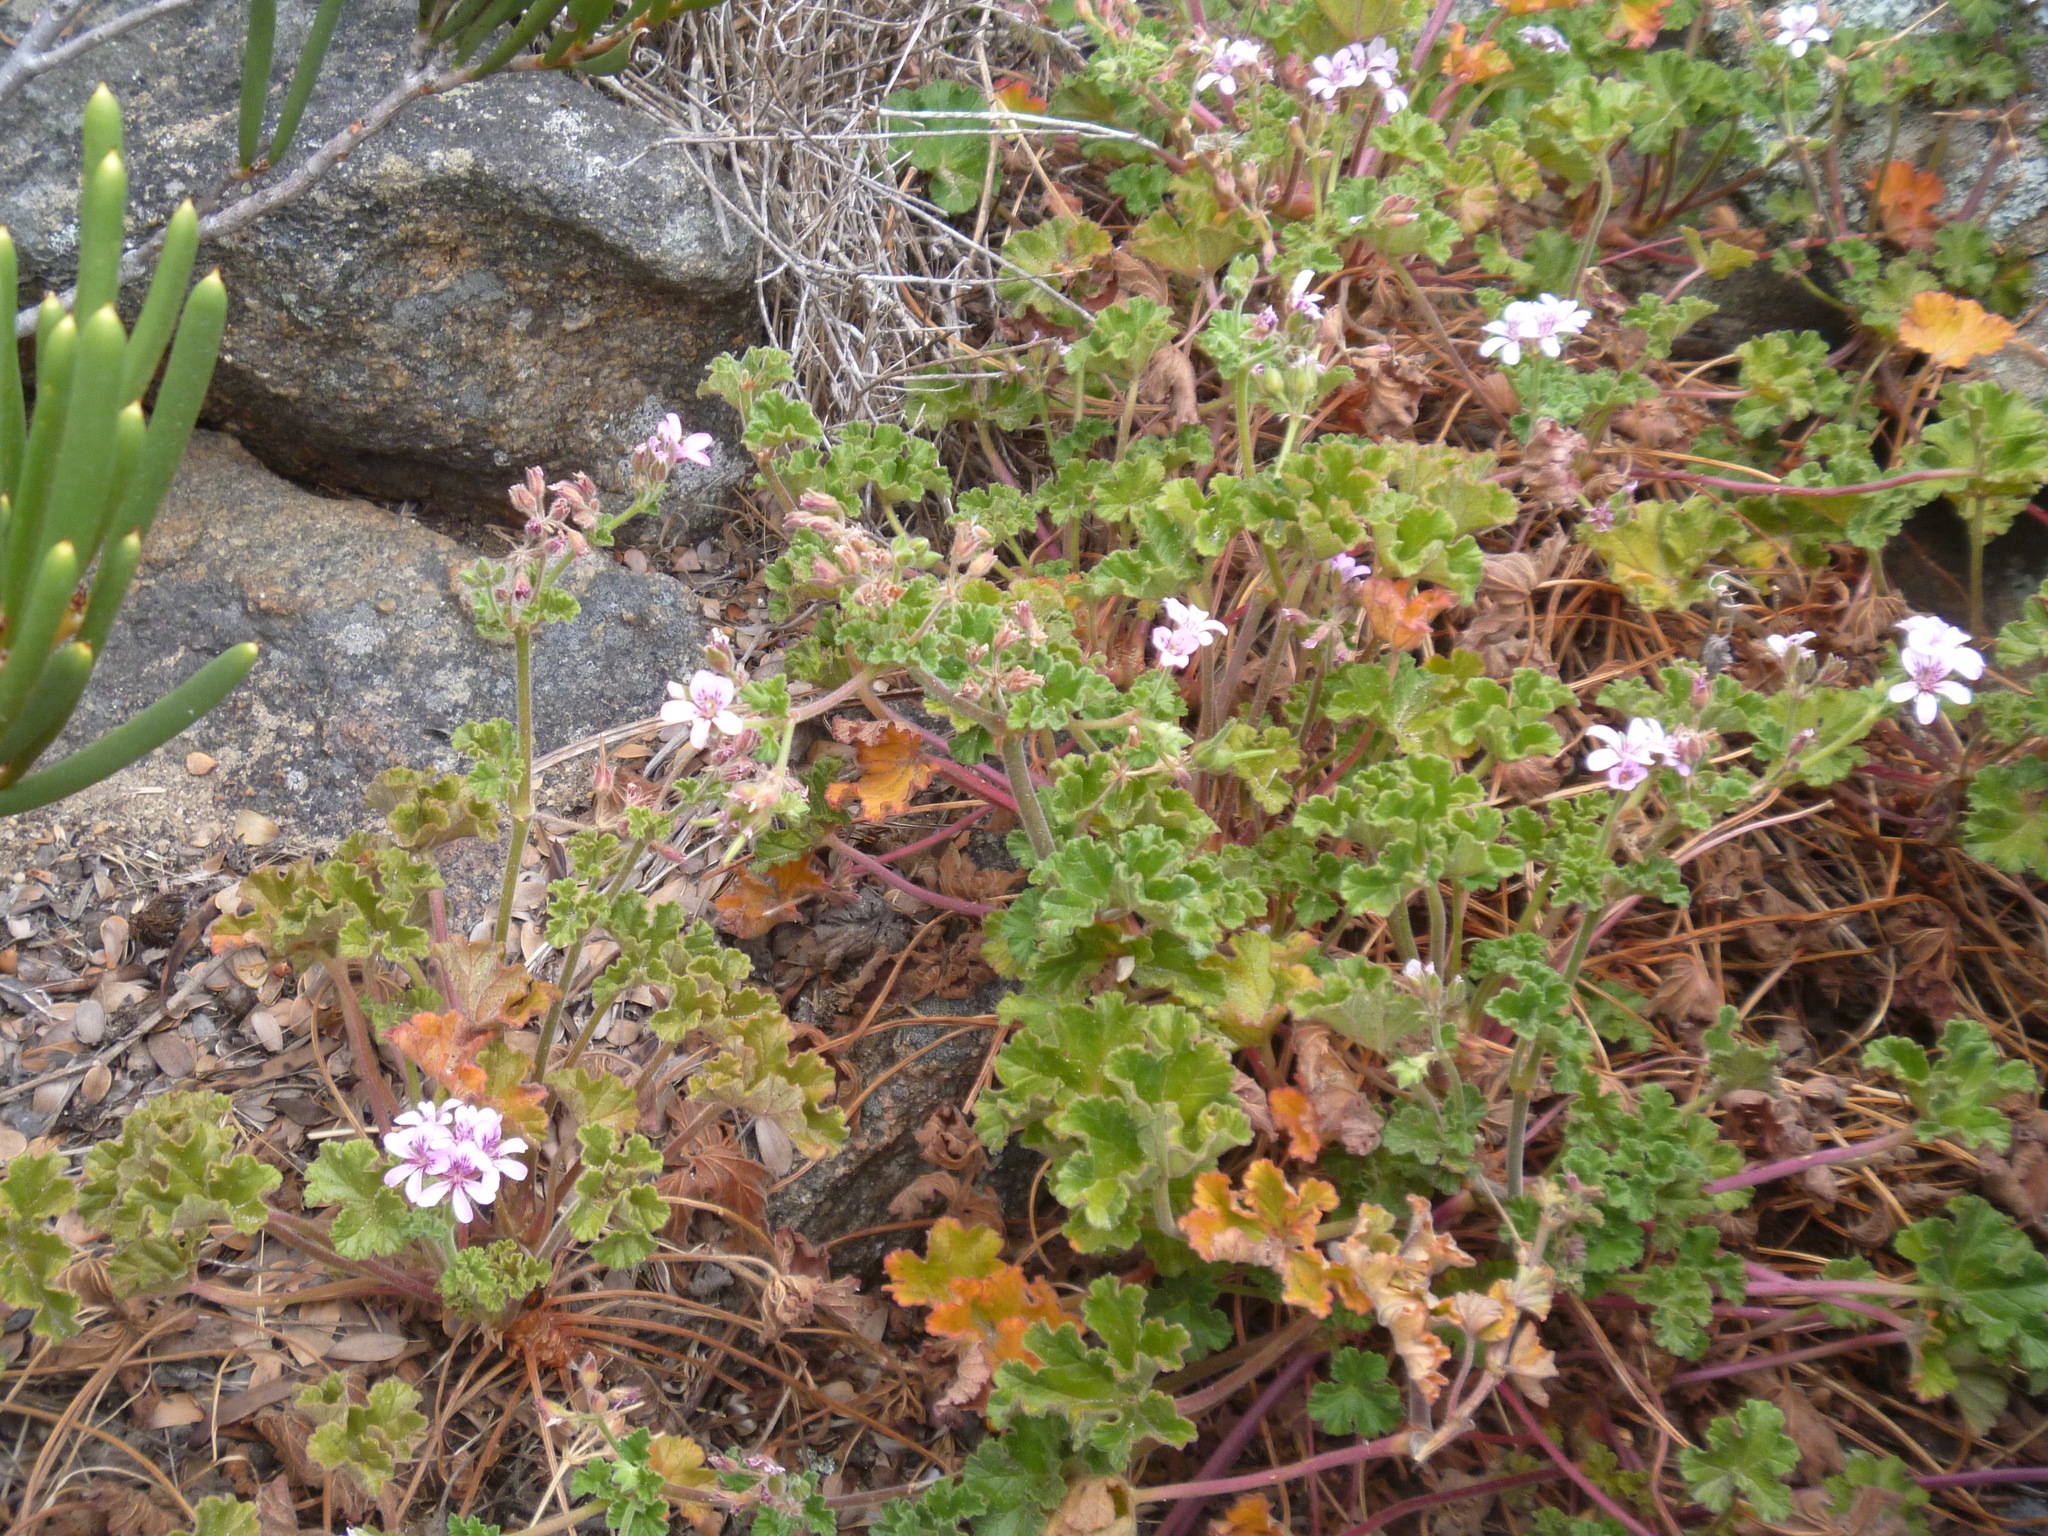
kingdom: Plantae
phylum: Tracheophyta
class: Magnoliopsida
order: Geraniales
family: Geraniaceae
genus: Pelargonium
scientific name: Pelargonium capitatum
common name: Rose scented geranium
